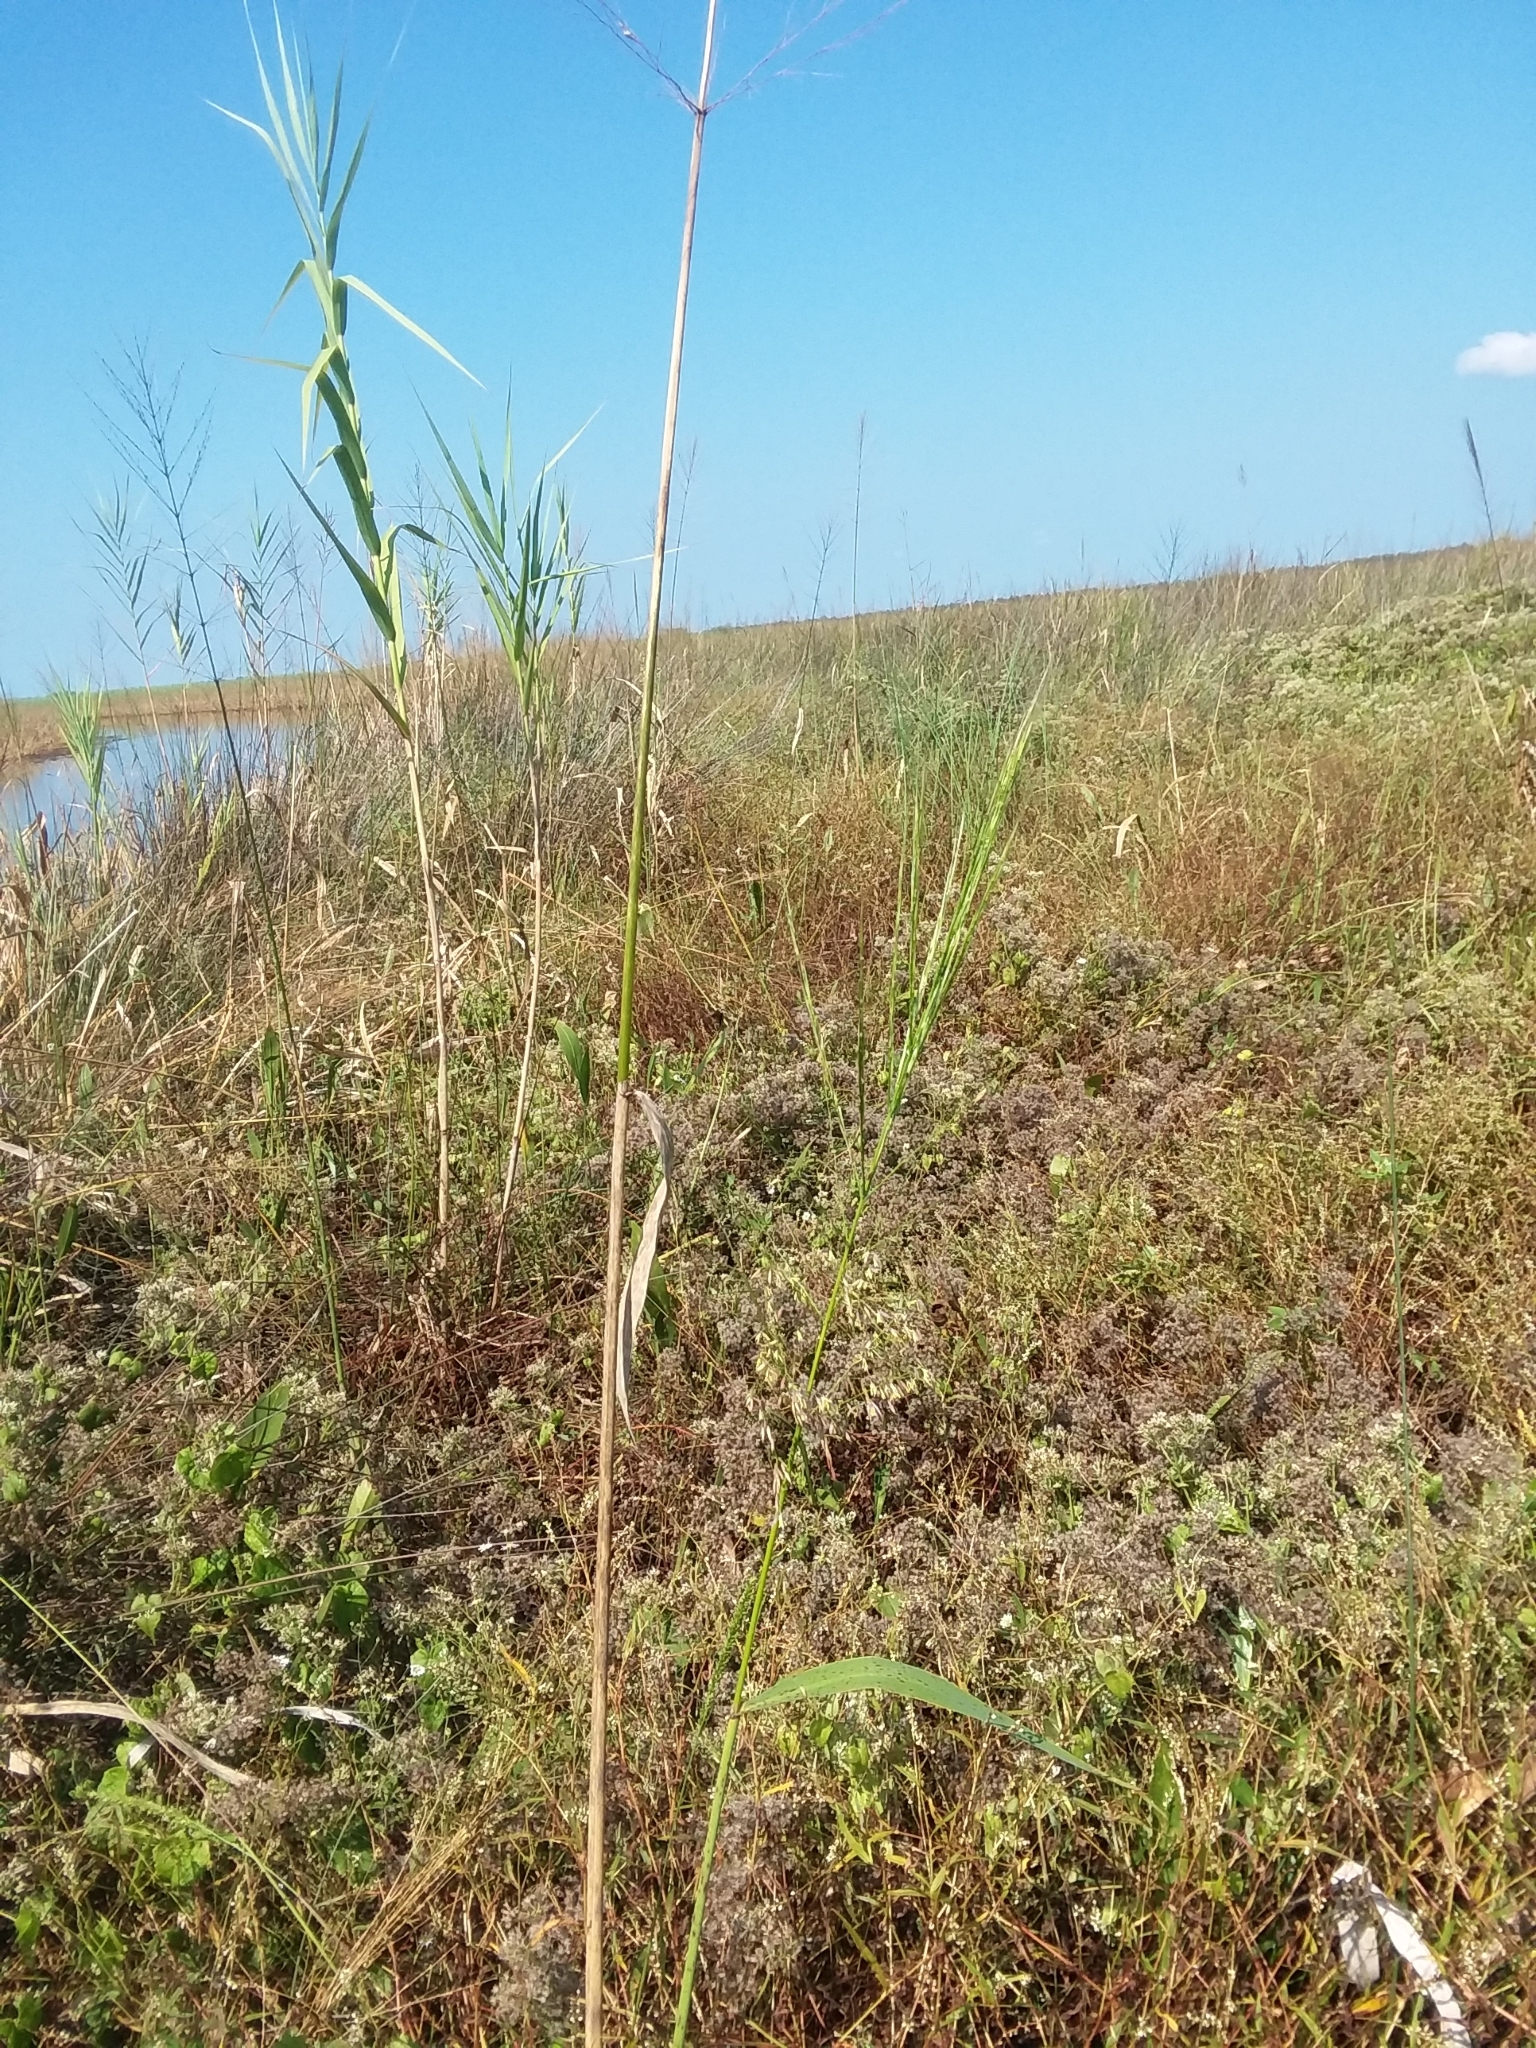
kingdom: Plantae
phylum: Tracheophyta
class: Liliopsida
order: Poales
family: Poaceae
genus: Zizania
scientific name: Zizania aquatica
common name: Annual wildrice
